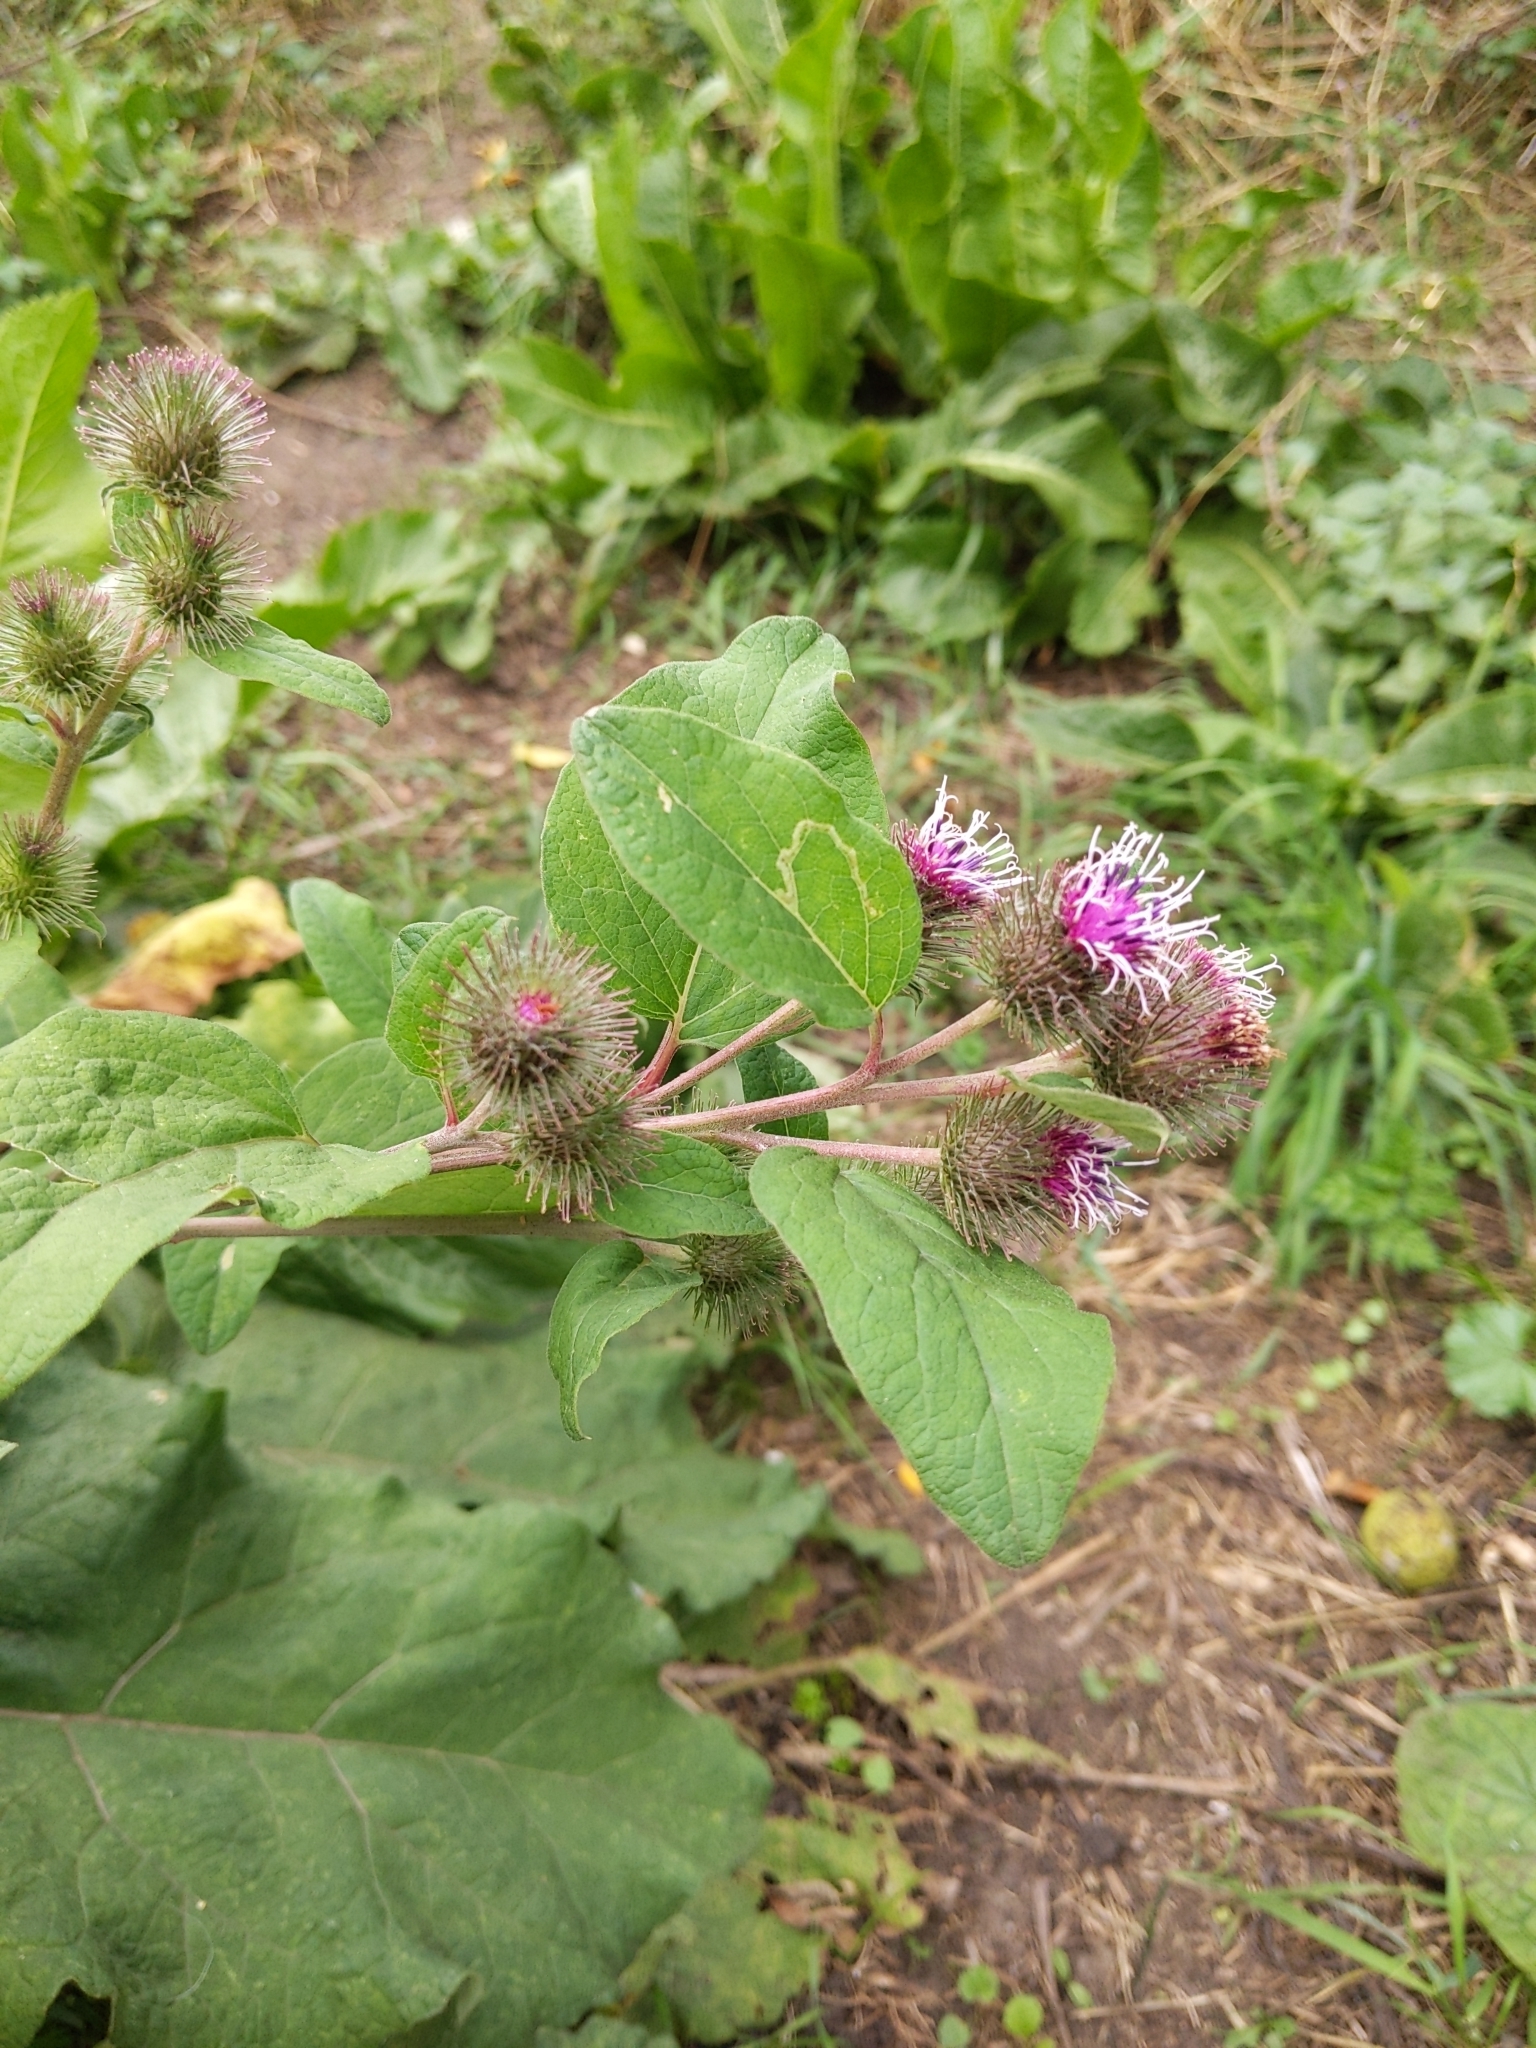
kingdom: Plantae
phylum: Tracheophyta
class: Magnoliopsida
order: Asterales
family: Asteraceae
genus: Arctium
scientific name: Arctium minus
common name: Lesser burdock
